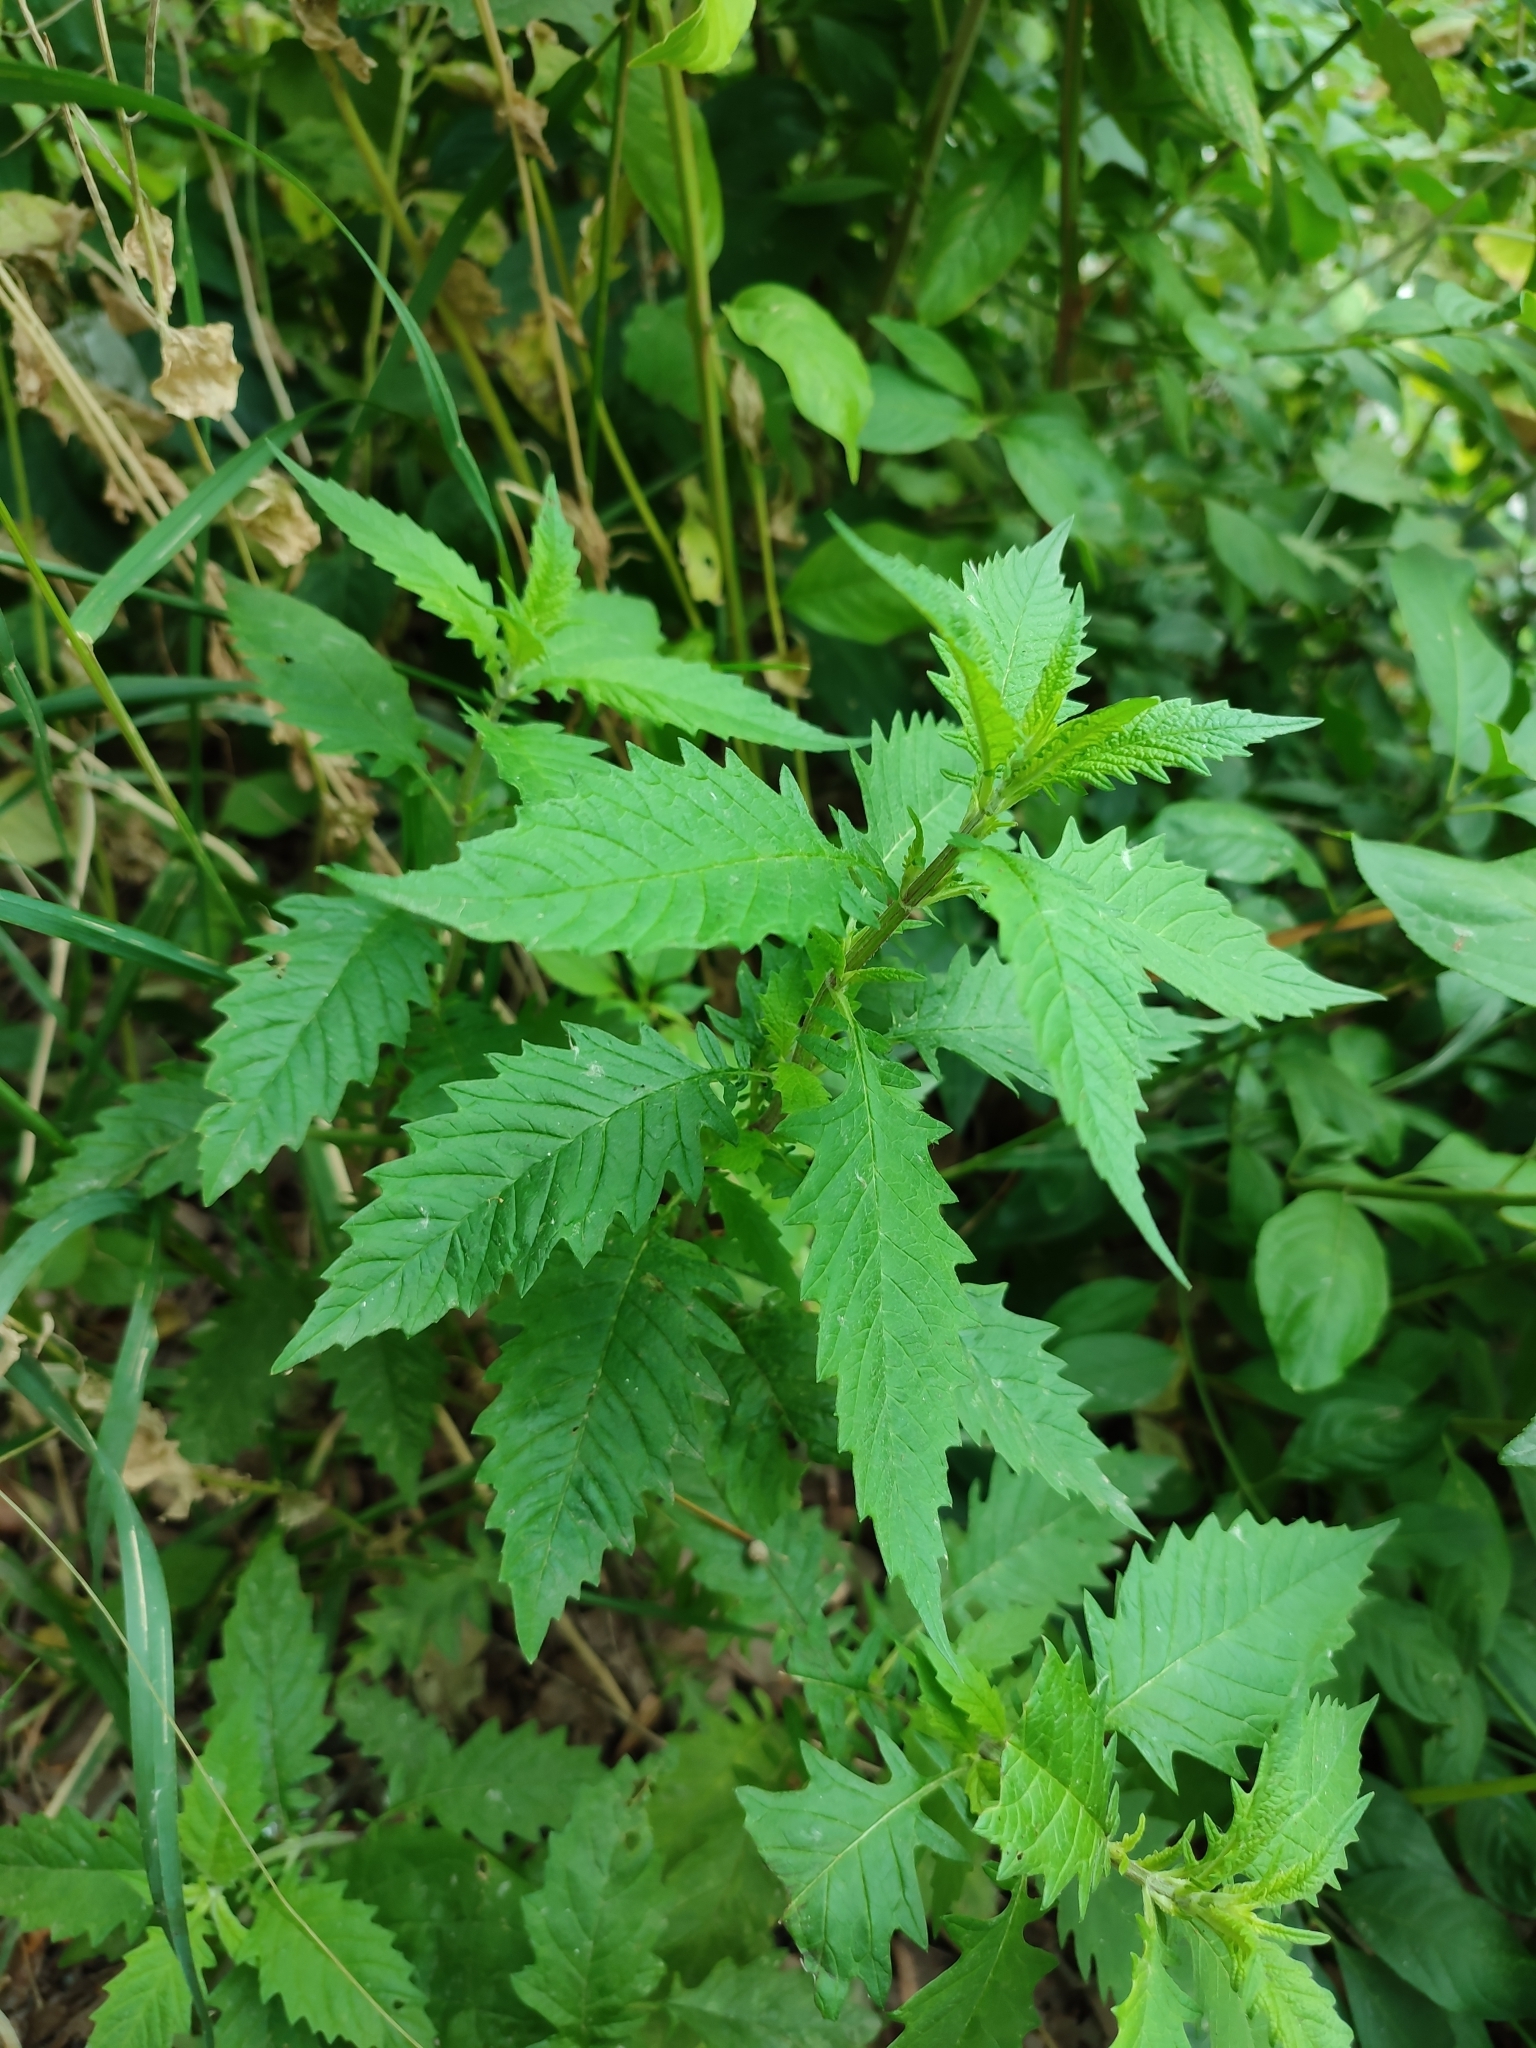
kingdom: Plantae
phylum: Tracheophyta
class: Magnoliopsida
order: Lamiales
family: Lamiaceae
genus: Lycopus
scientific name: Lycopus europaeus
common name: European bugleweed
